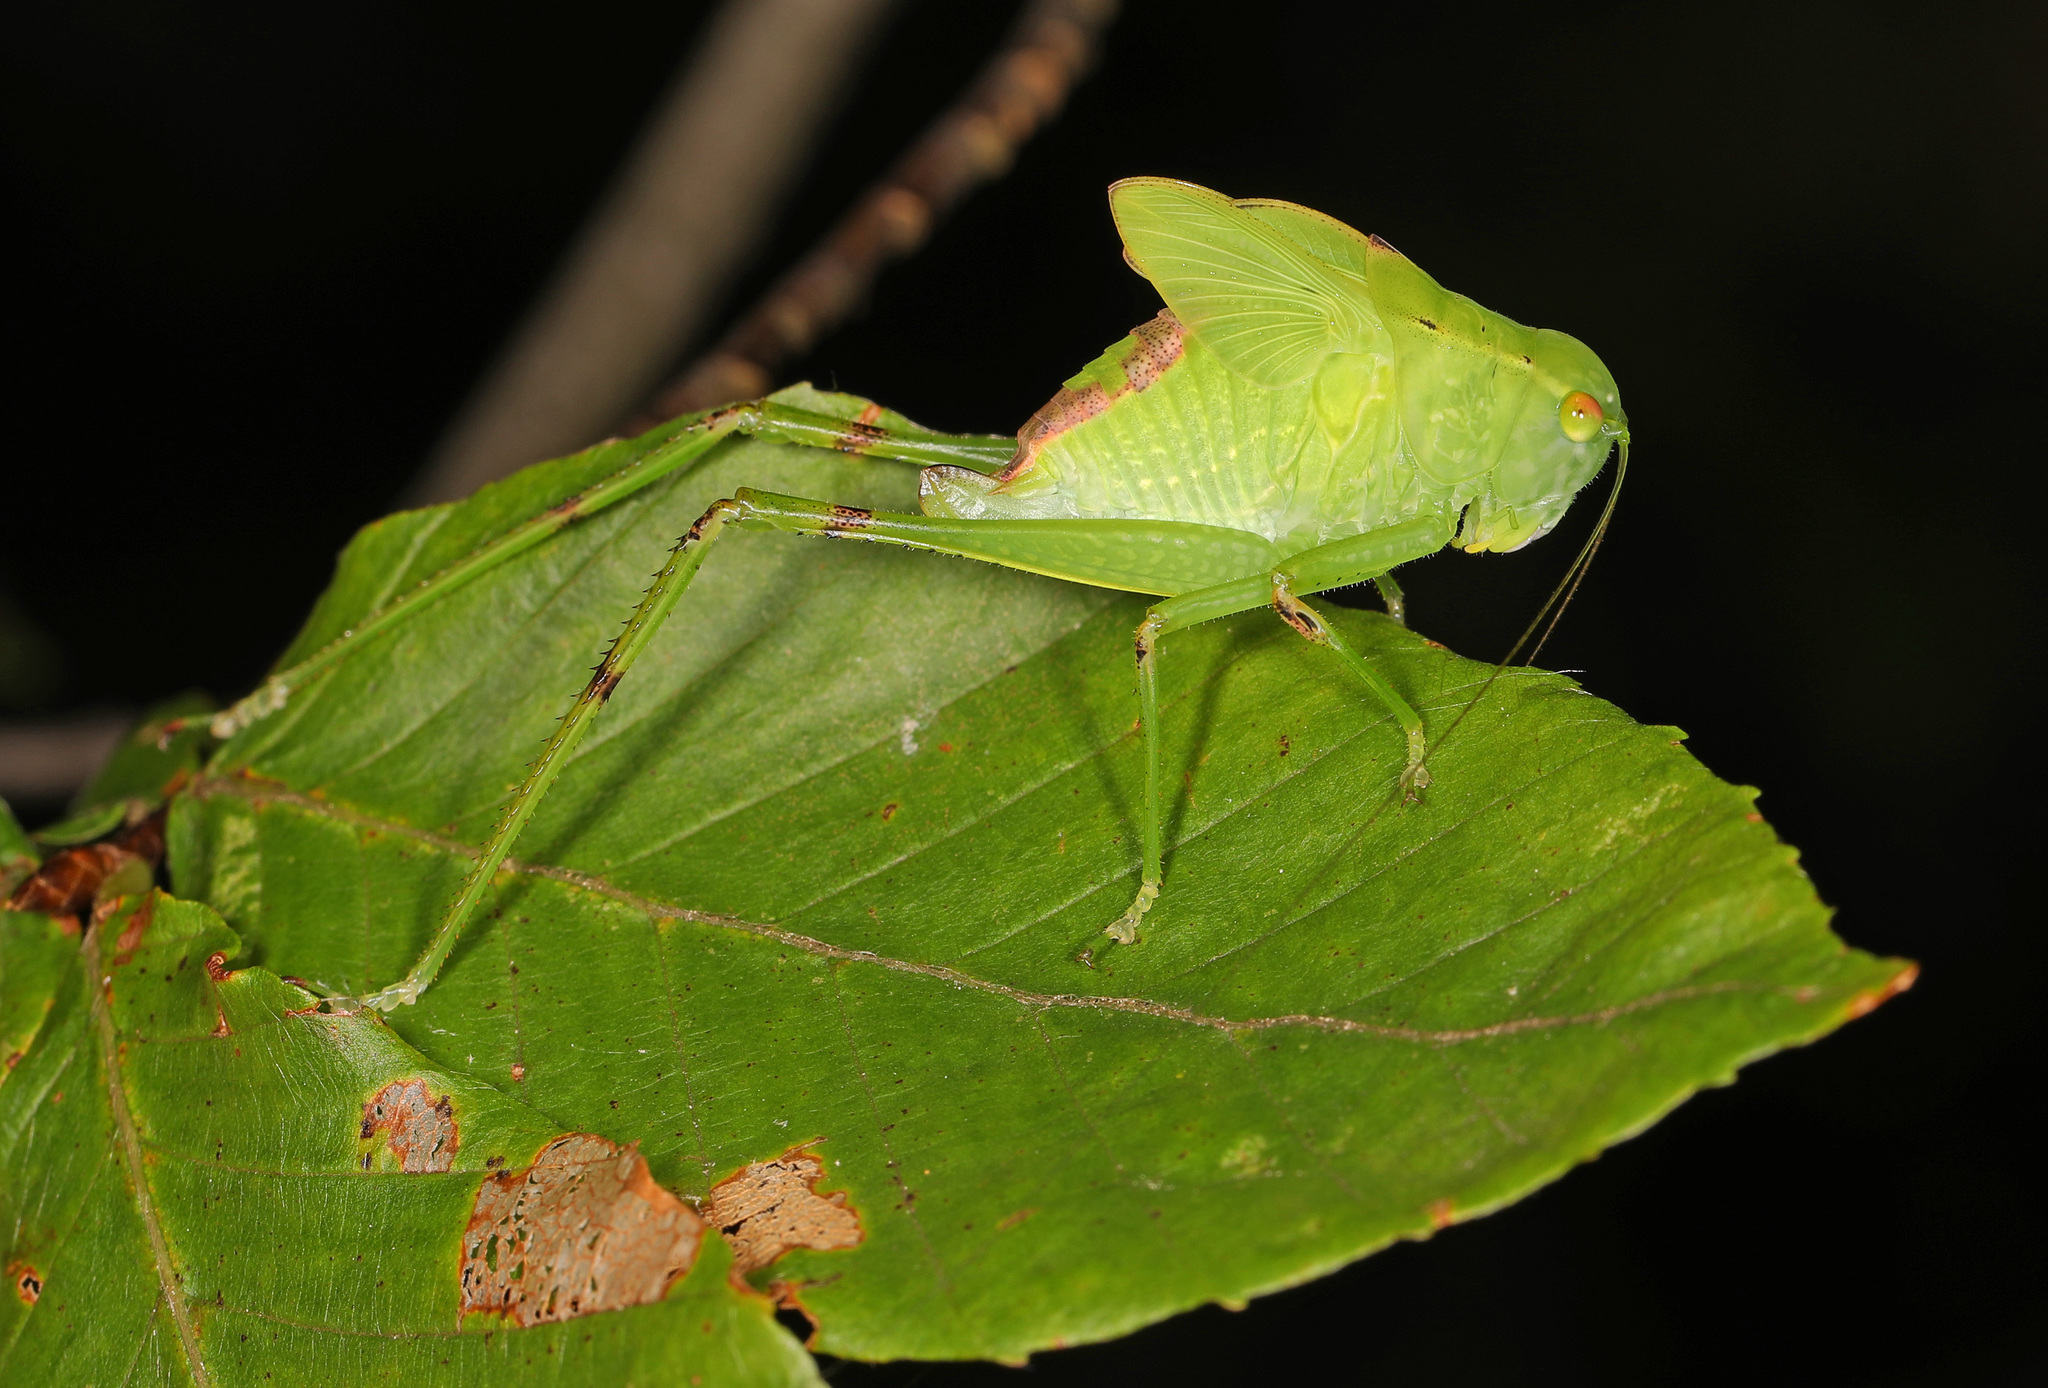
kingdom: Animalia
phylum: Arthropoda
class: Insecta
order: Orthoptera
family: Tettigoniidae
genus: Microcentrum
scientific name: Microcentrum retinerve
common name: Angular-winged katydid
